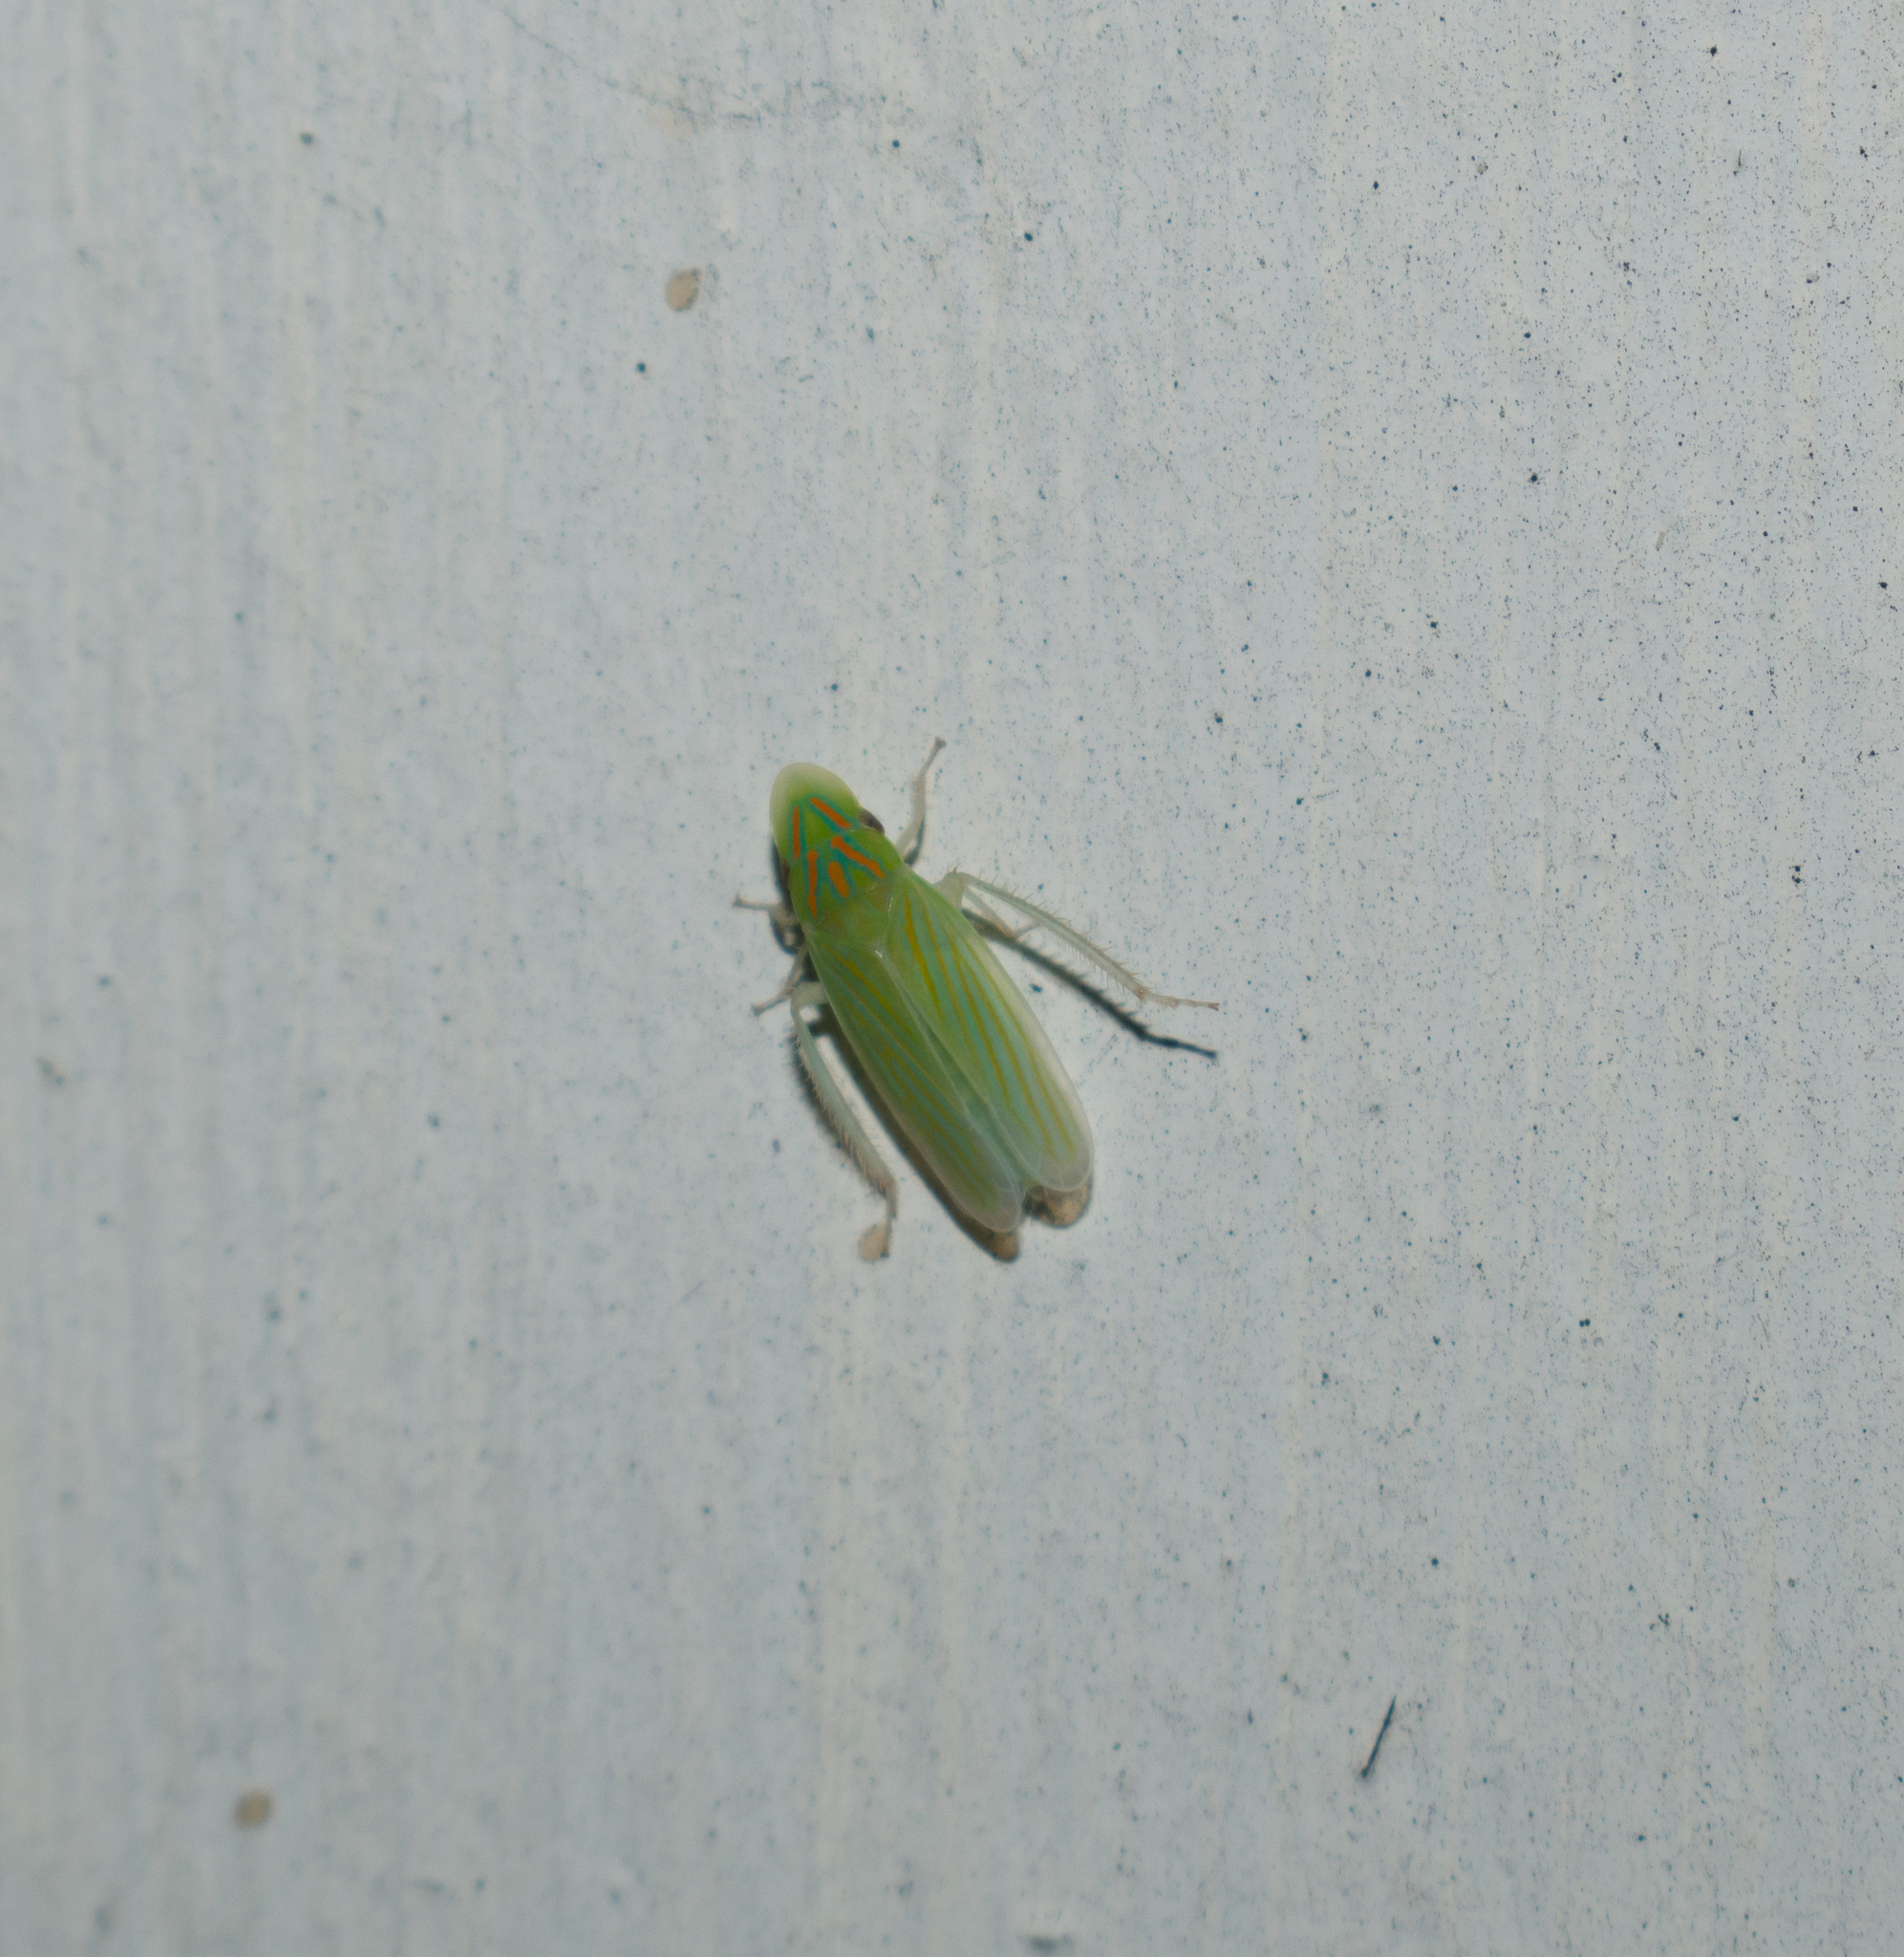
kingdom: Animalia
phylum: Arthropoda
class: Insecta
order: Hemiptera
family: Cicadellidae
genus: Spangbergiella
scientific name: Spangbergiella vulnerata
